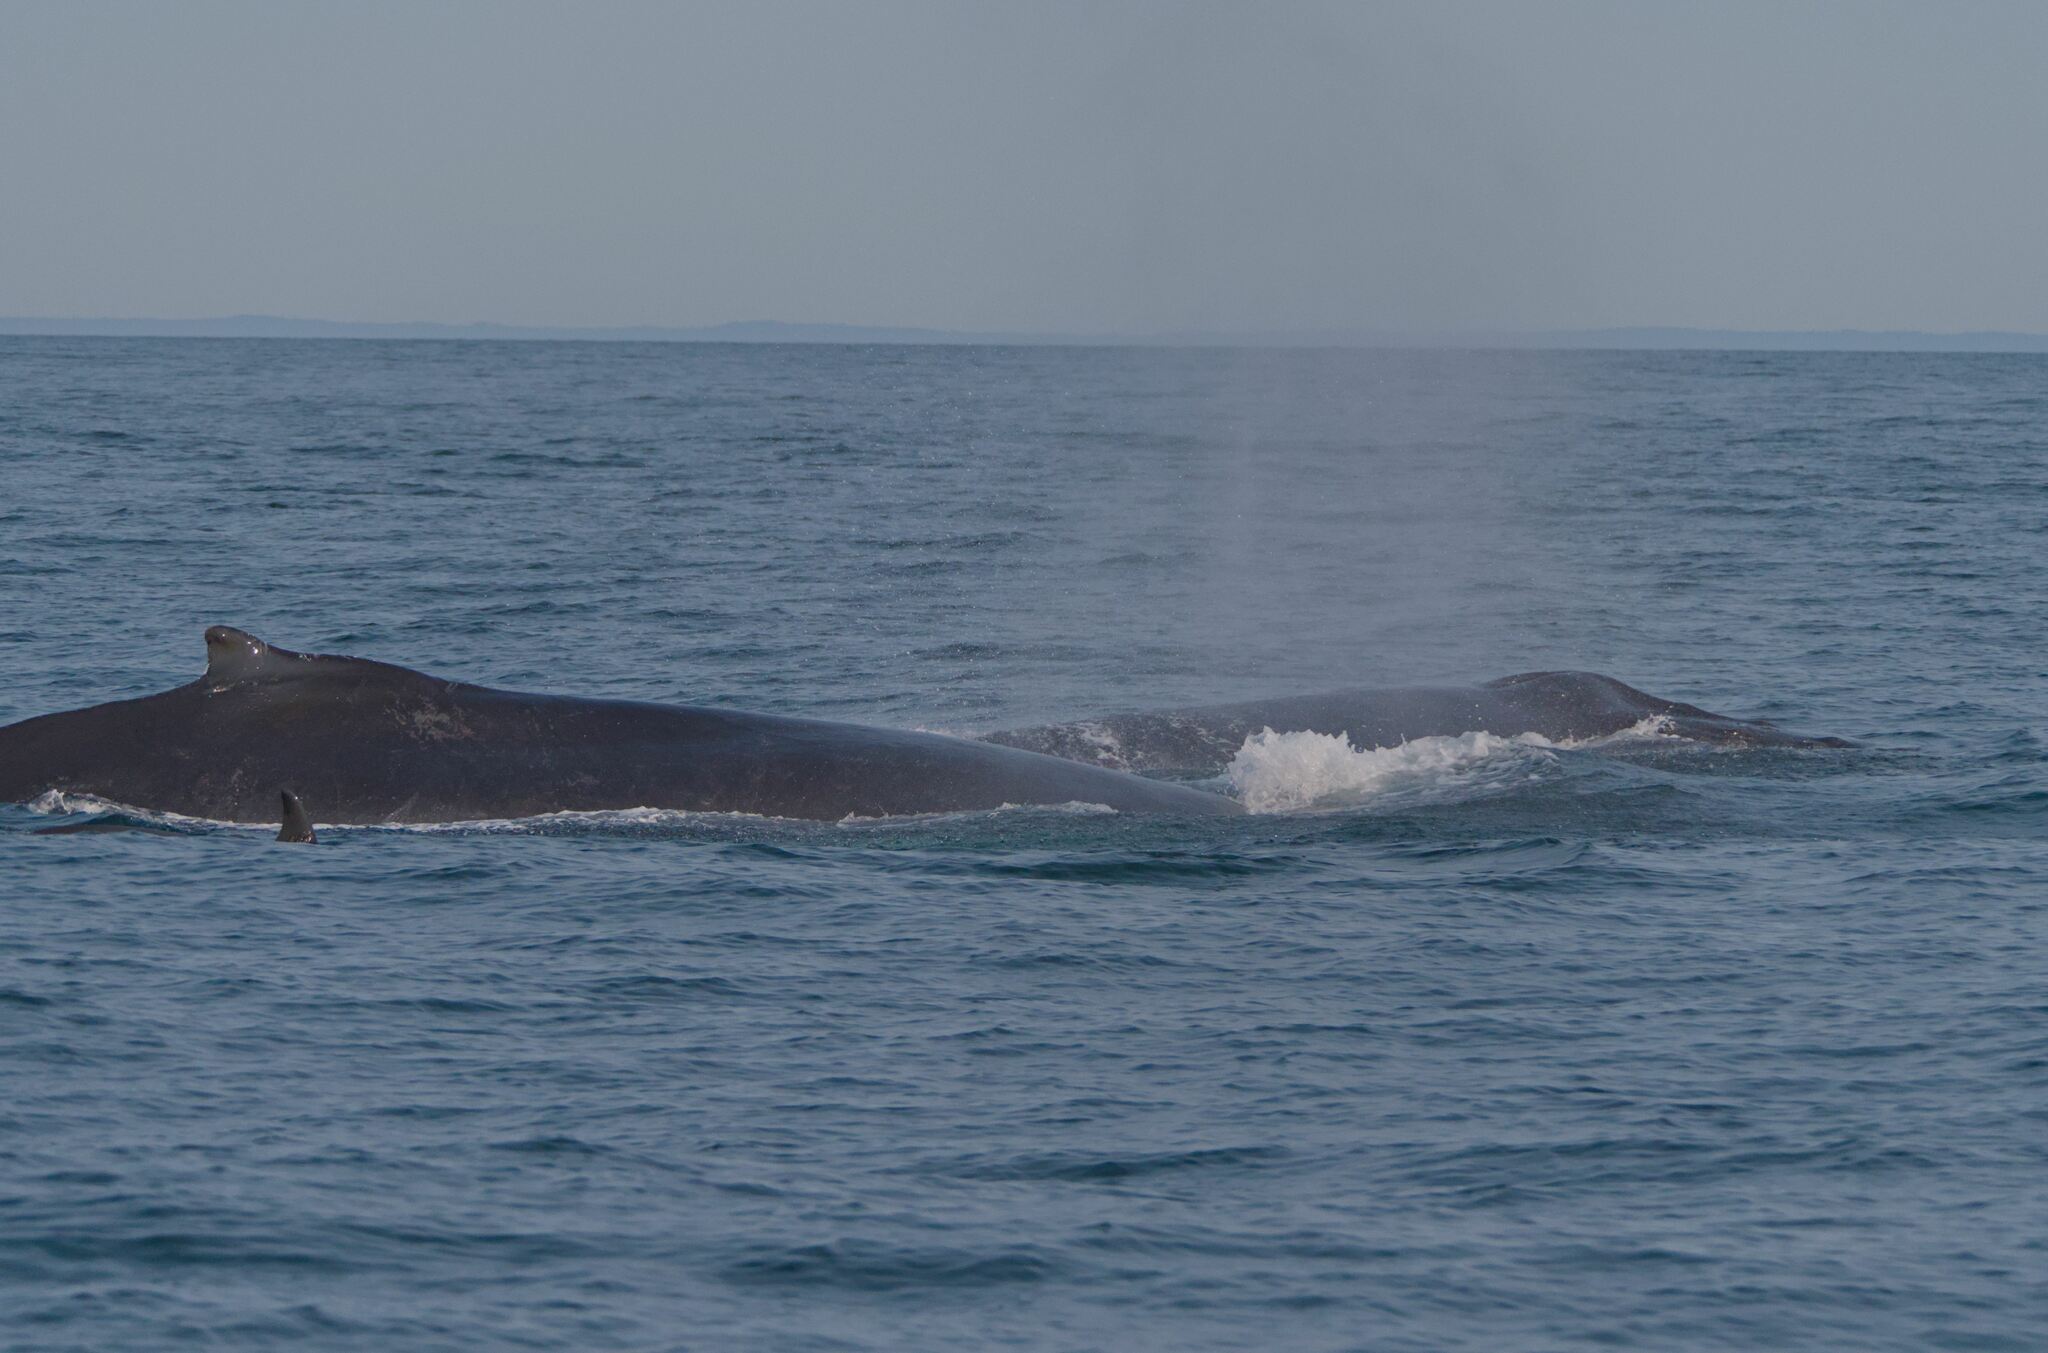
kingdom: Animalia
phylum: Chordata
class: Mammalia
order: Cetacea
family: Balaenopteridae
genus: Megaptera
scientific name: Megaptera novaeangliae
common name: Humpback whale
